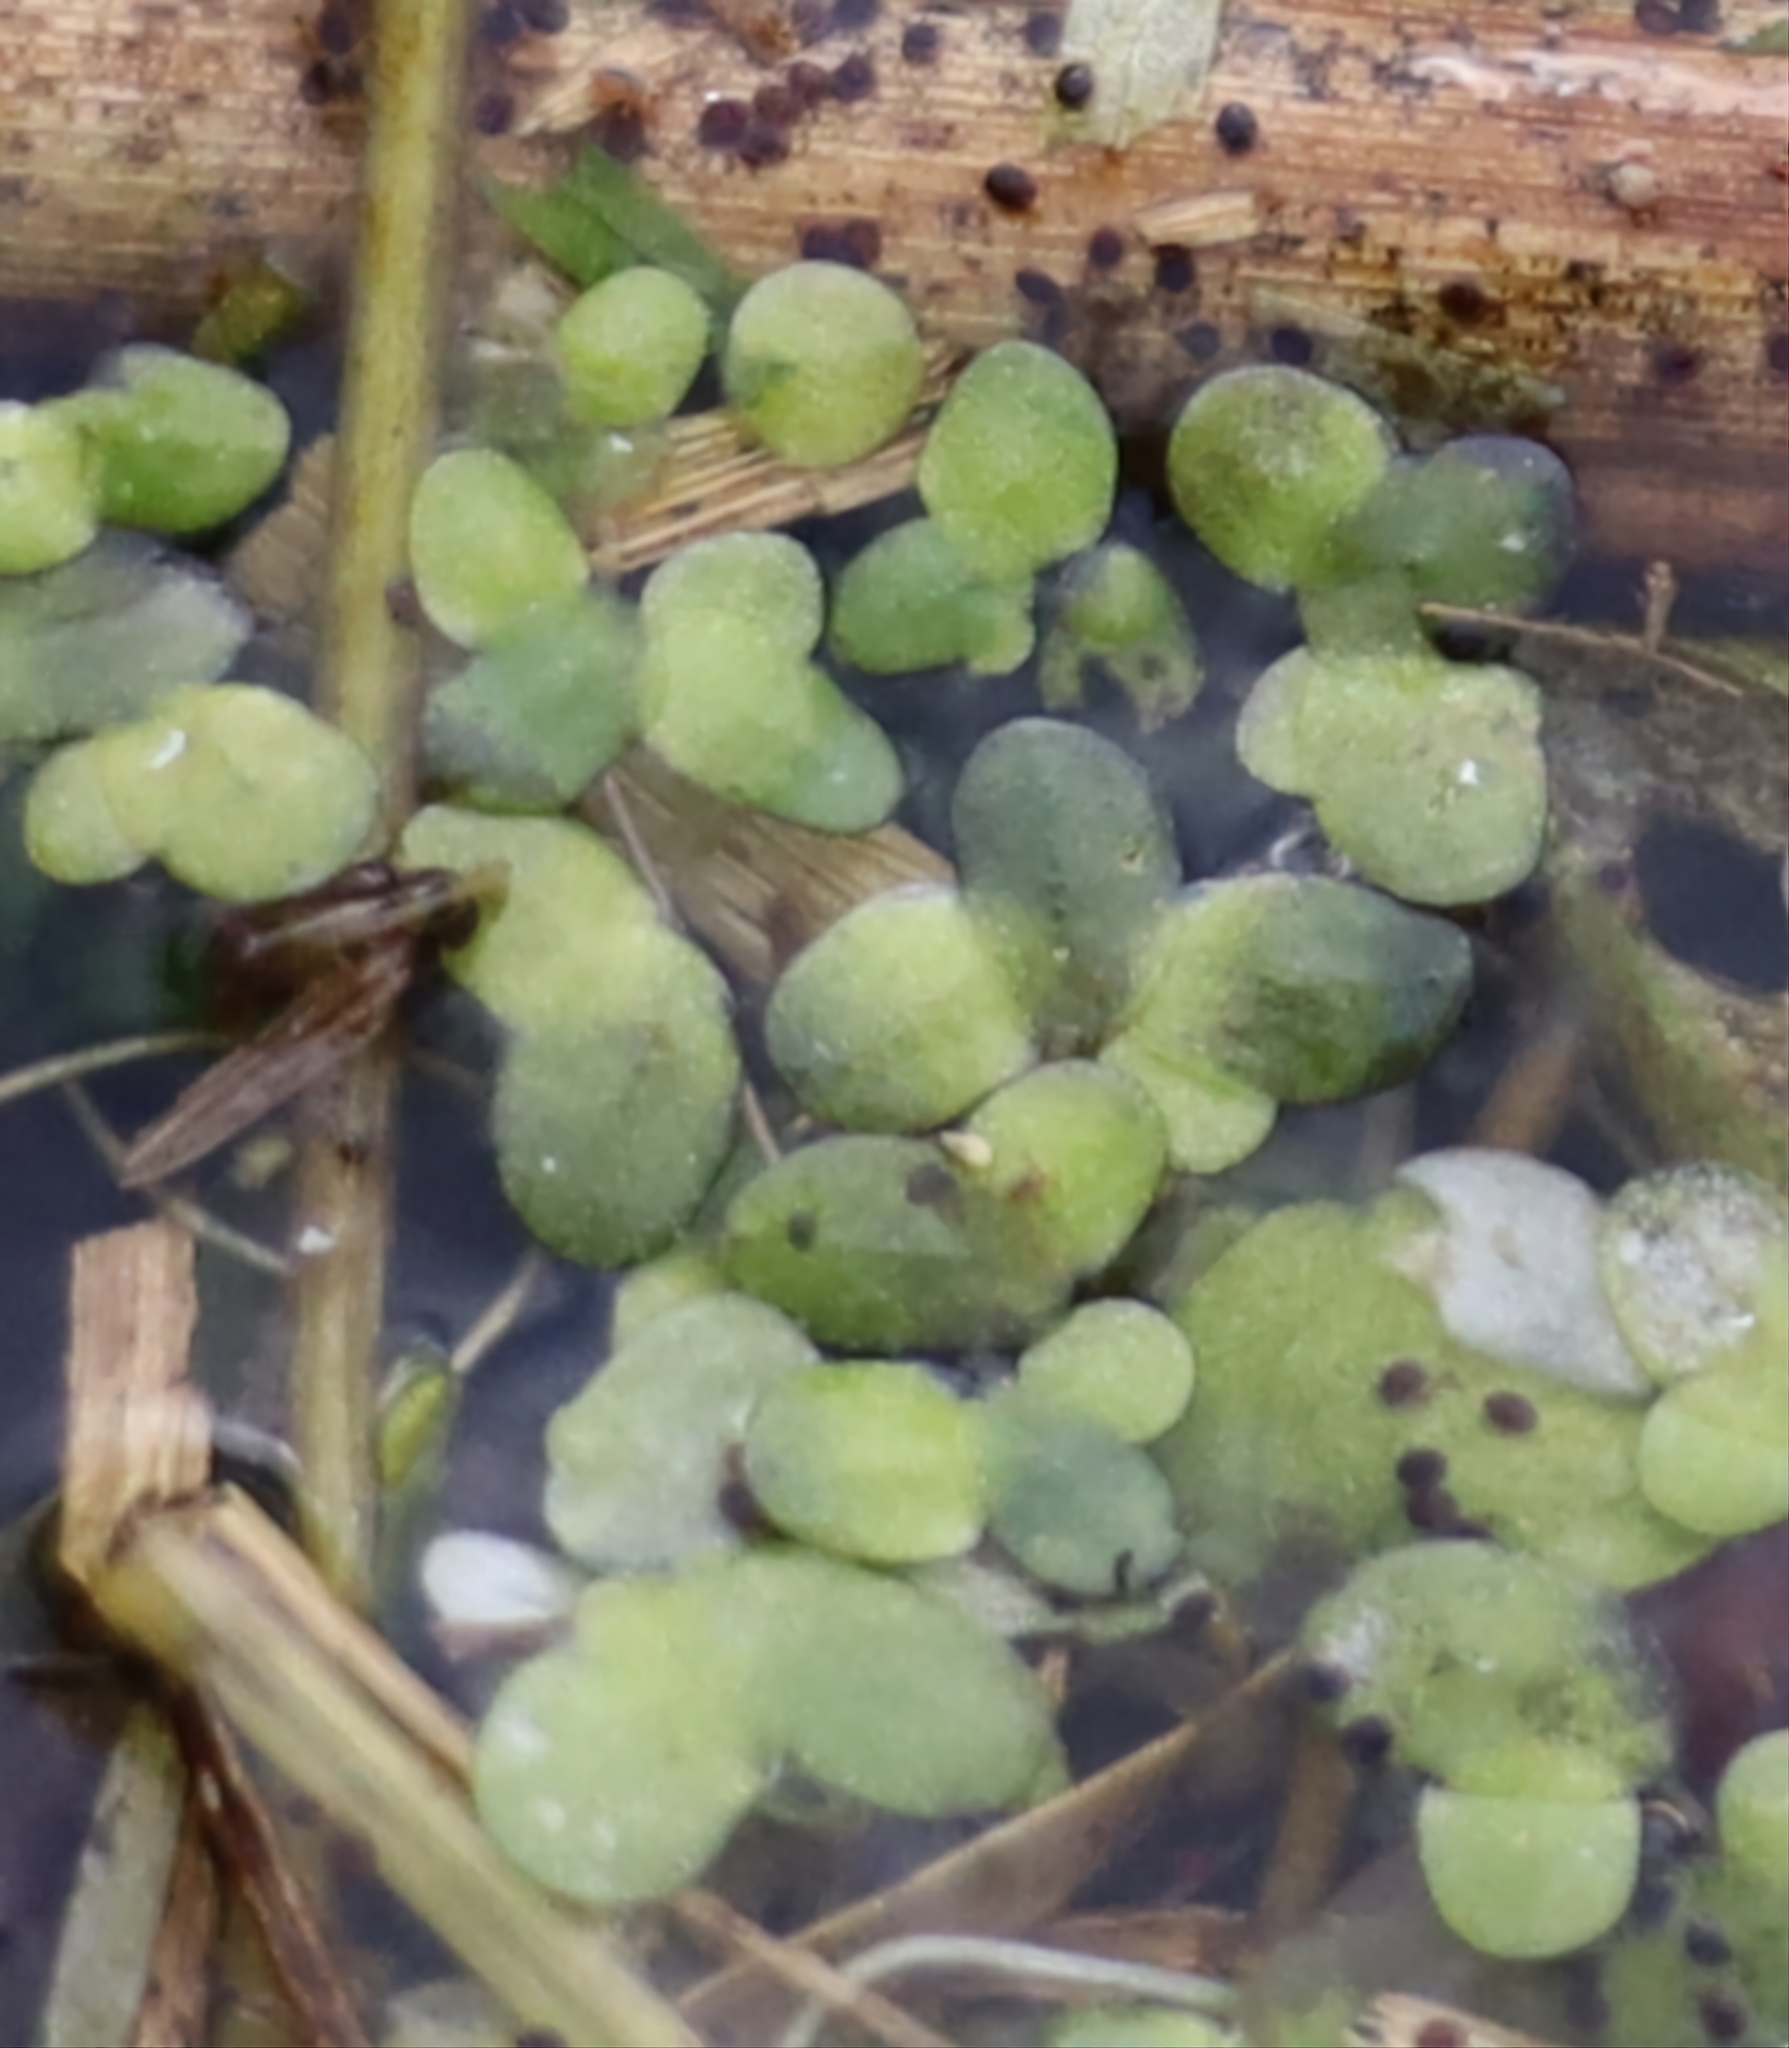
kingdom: Plantae
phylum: Tracheophyta
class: Liliopsida
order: Alismatales
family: Araceae
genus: Lemna
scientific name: Lemna minor
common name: Common duckweed
